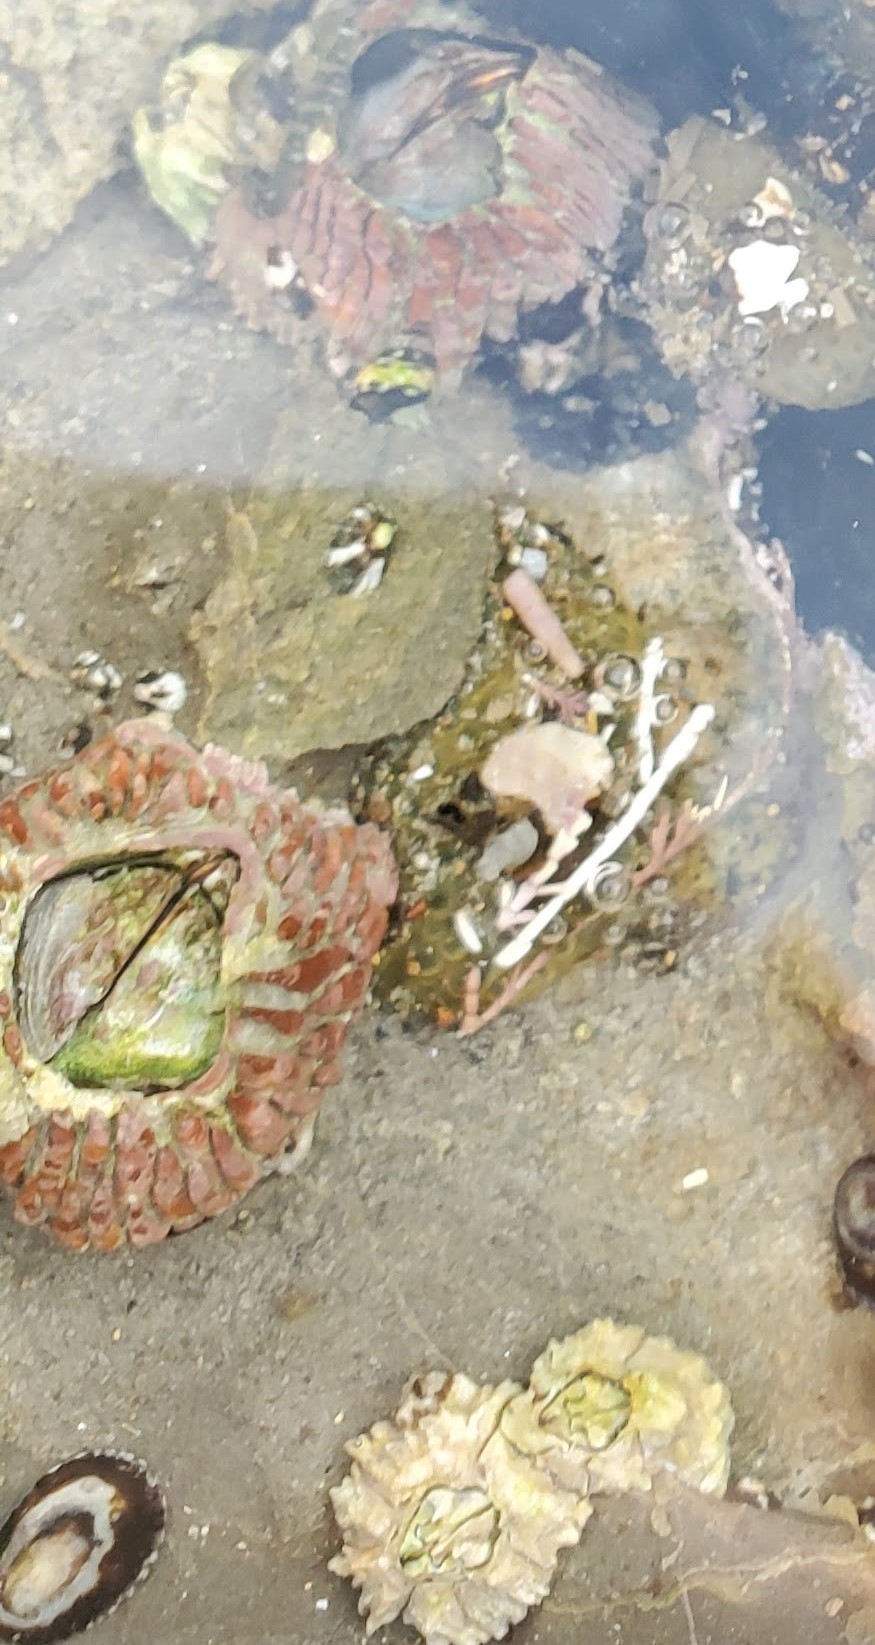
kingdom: Animalia
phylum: Arthropoda
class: Maxillopoda
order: Sessilia
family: Tetraclitidae
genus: Tetraclita
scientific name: Tetraclita rubescens
